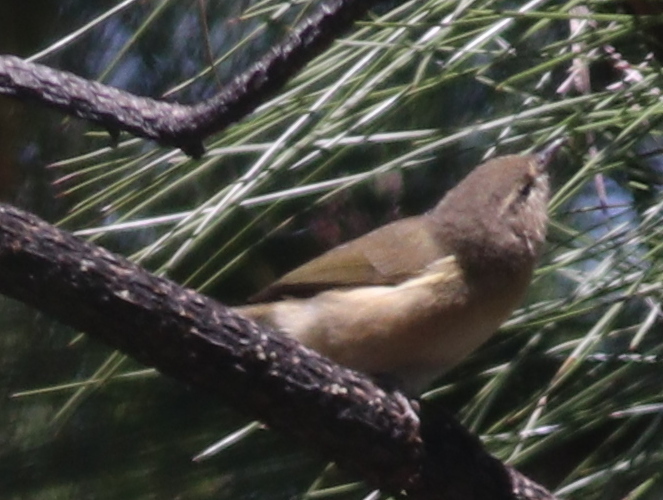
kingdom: Animalia
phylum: Chordata
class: Aves
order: Passeriformes
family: Phylloscopidae
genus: Phylloscopus
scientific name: Phylloscopus canariensis
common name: Canary islands chiffchaff
